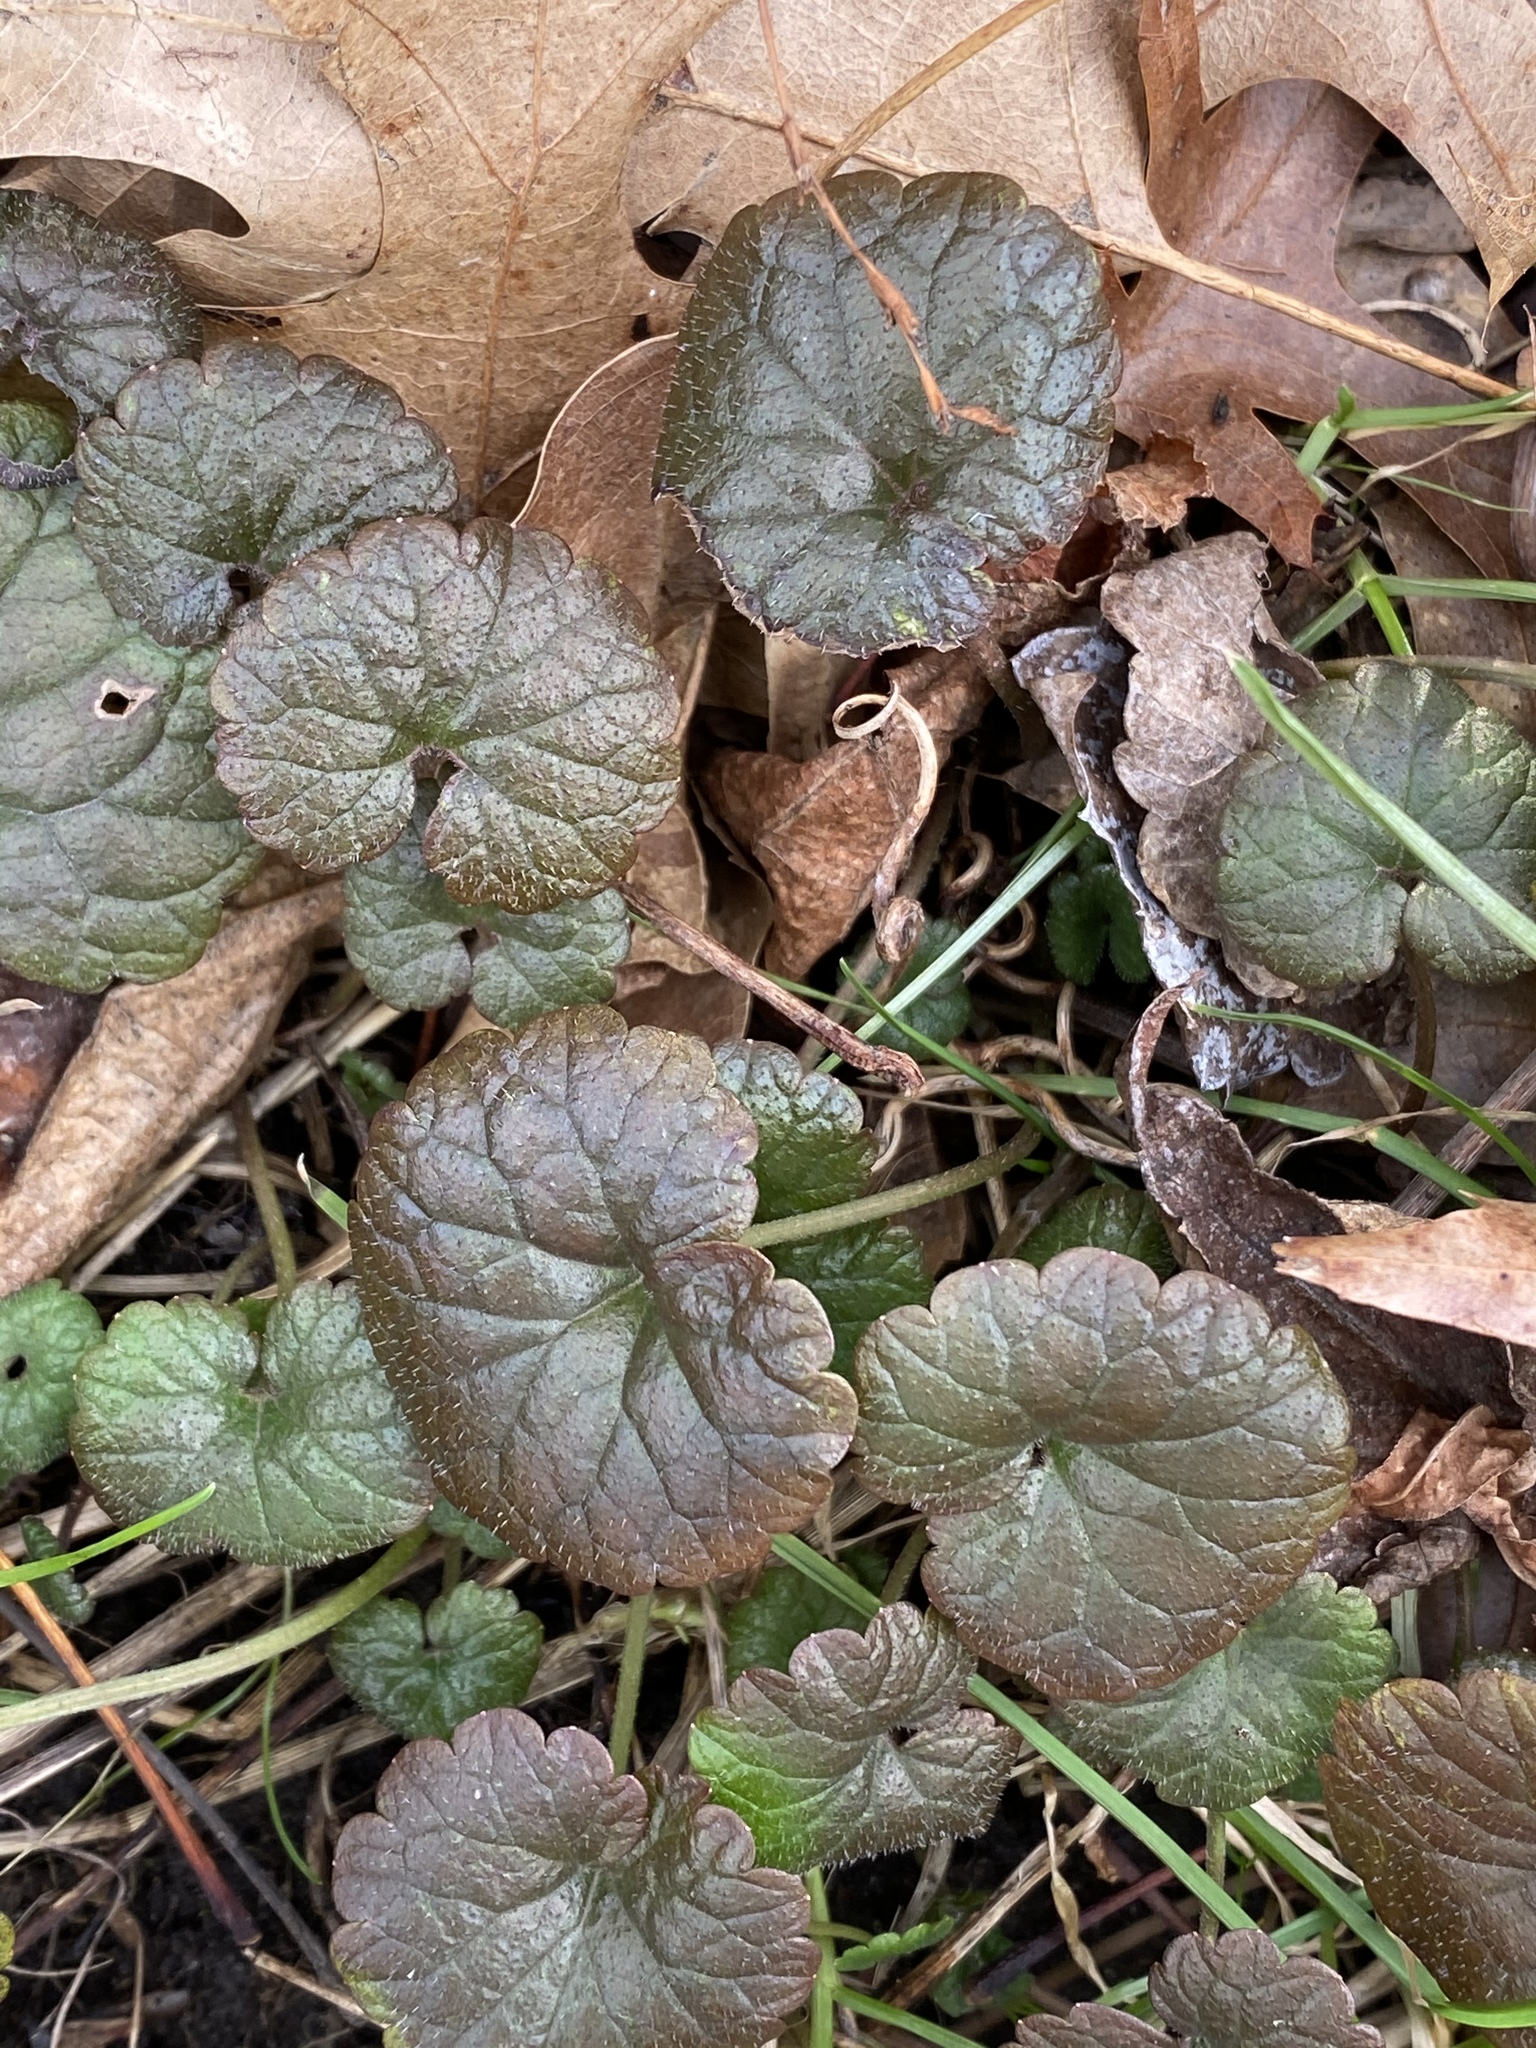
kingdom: Plantae
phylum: Tracheophyta
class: Magnoliopsida
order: Lamiales
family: Lamiaceae
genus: Glechoma
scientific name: Glechoma hederacea
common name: Ground ivy
